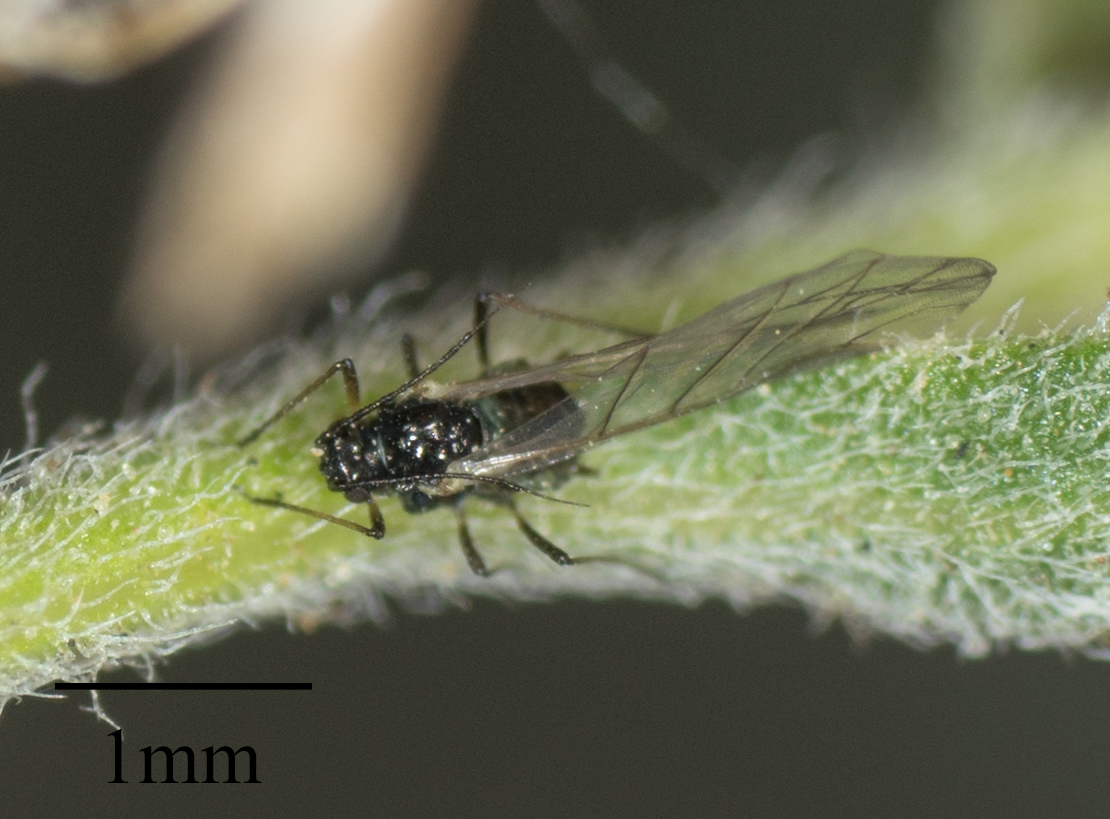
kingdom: Animalia
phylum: Arthropoda
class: Insecta
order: Hemiptera
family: Aphididae
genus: Hyalopterus
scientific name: Hyalopterus pruni
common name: Mealy plum aphid
